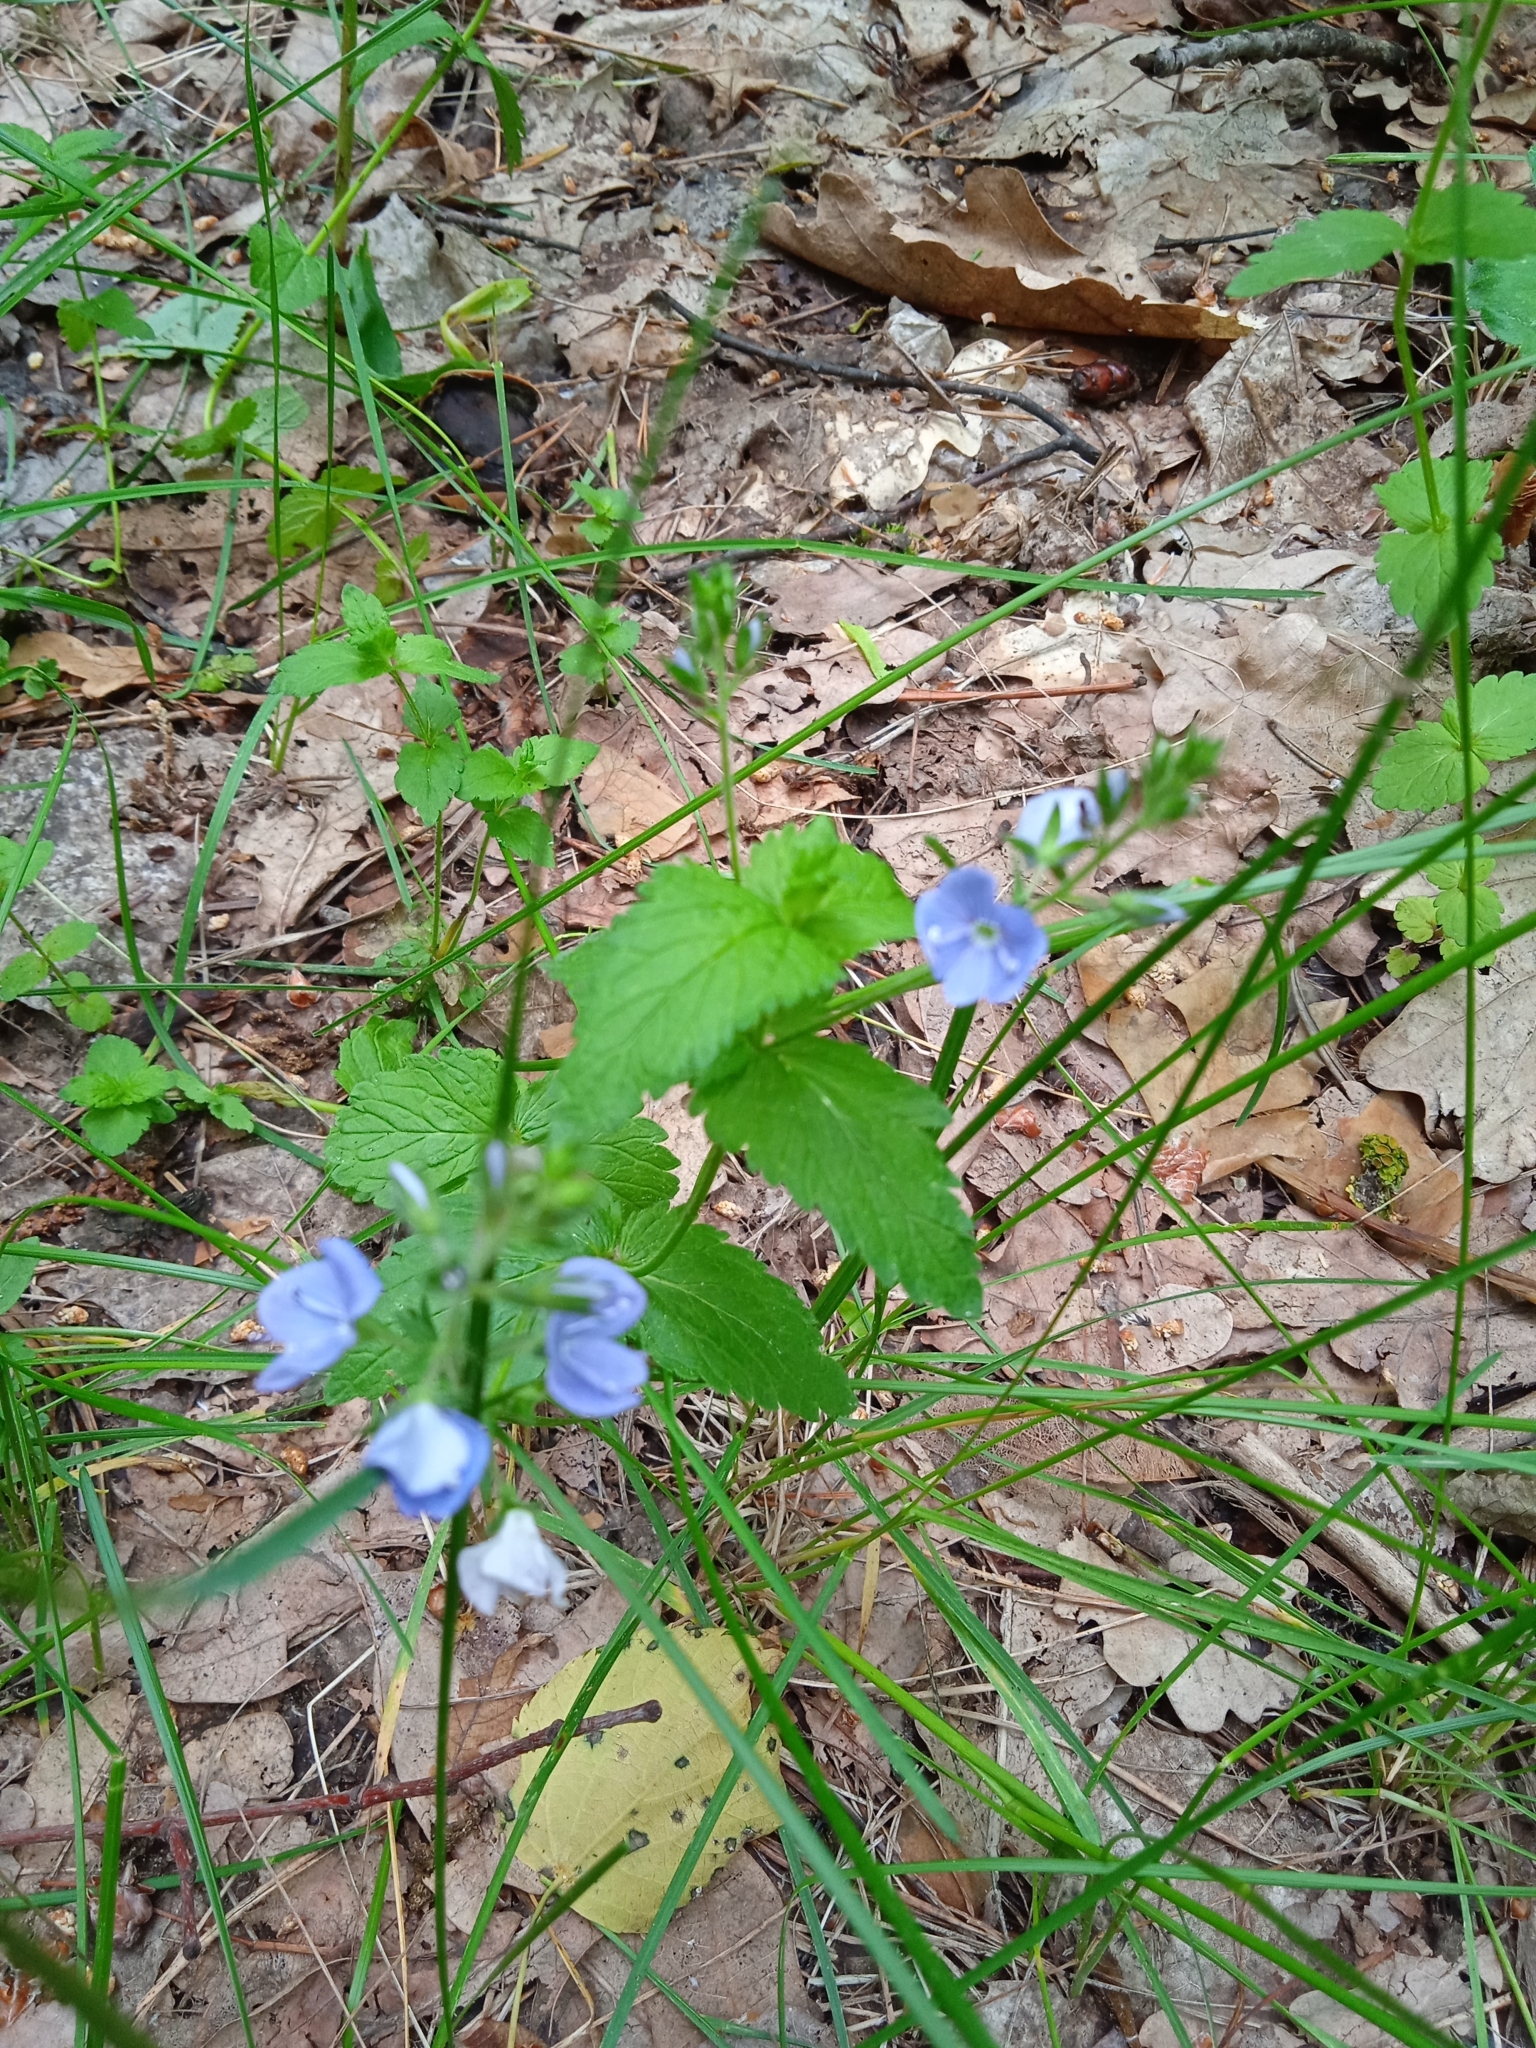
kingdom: Plantae
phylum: Tracheophyta
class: Magnoliopsida
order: Lamiales
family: Plantaginaceae
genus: Veronica
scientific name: Veronica chamaedrys
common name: Germander speedwell
